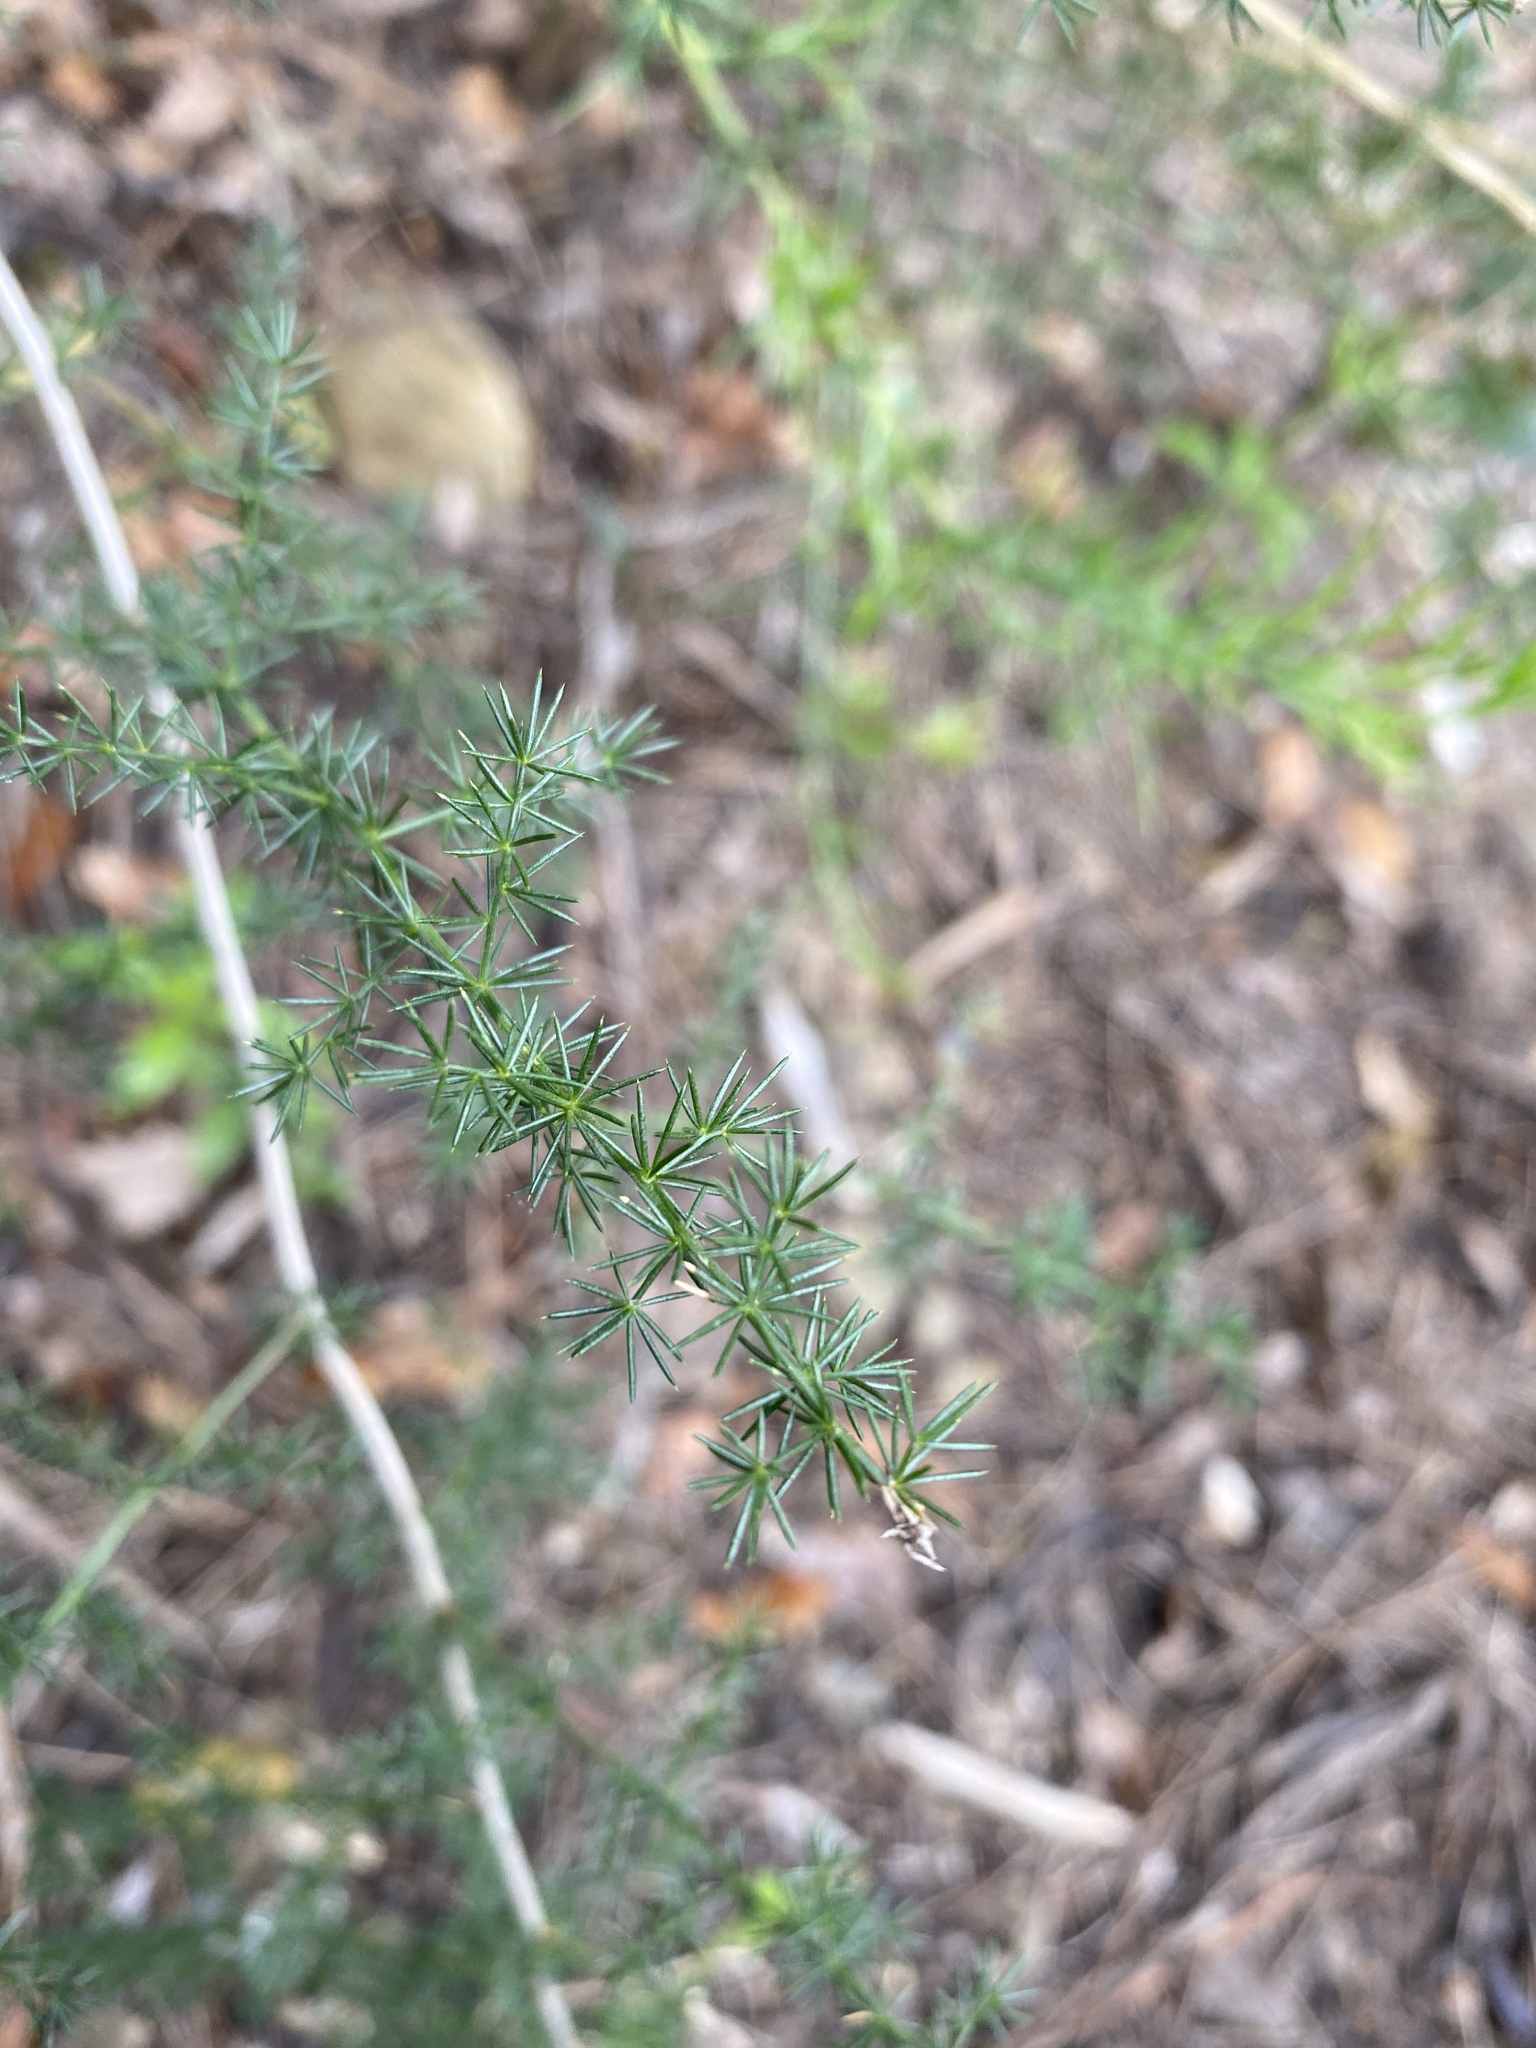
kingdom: Plantae
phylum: Tracheophyta
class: Liliopsida
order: Asparagales
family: Asparagaceae
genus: Asparagus
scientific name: Asparagus acutifolius
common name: Wild asparagus
